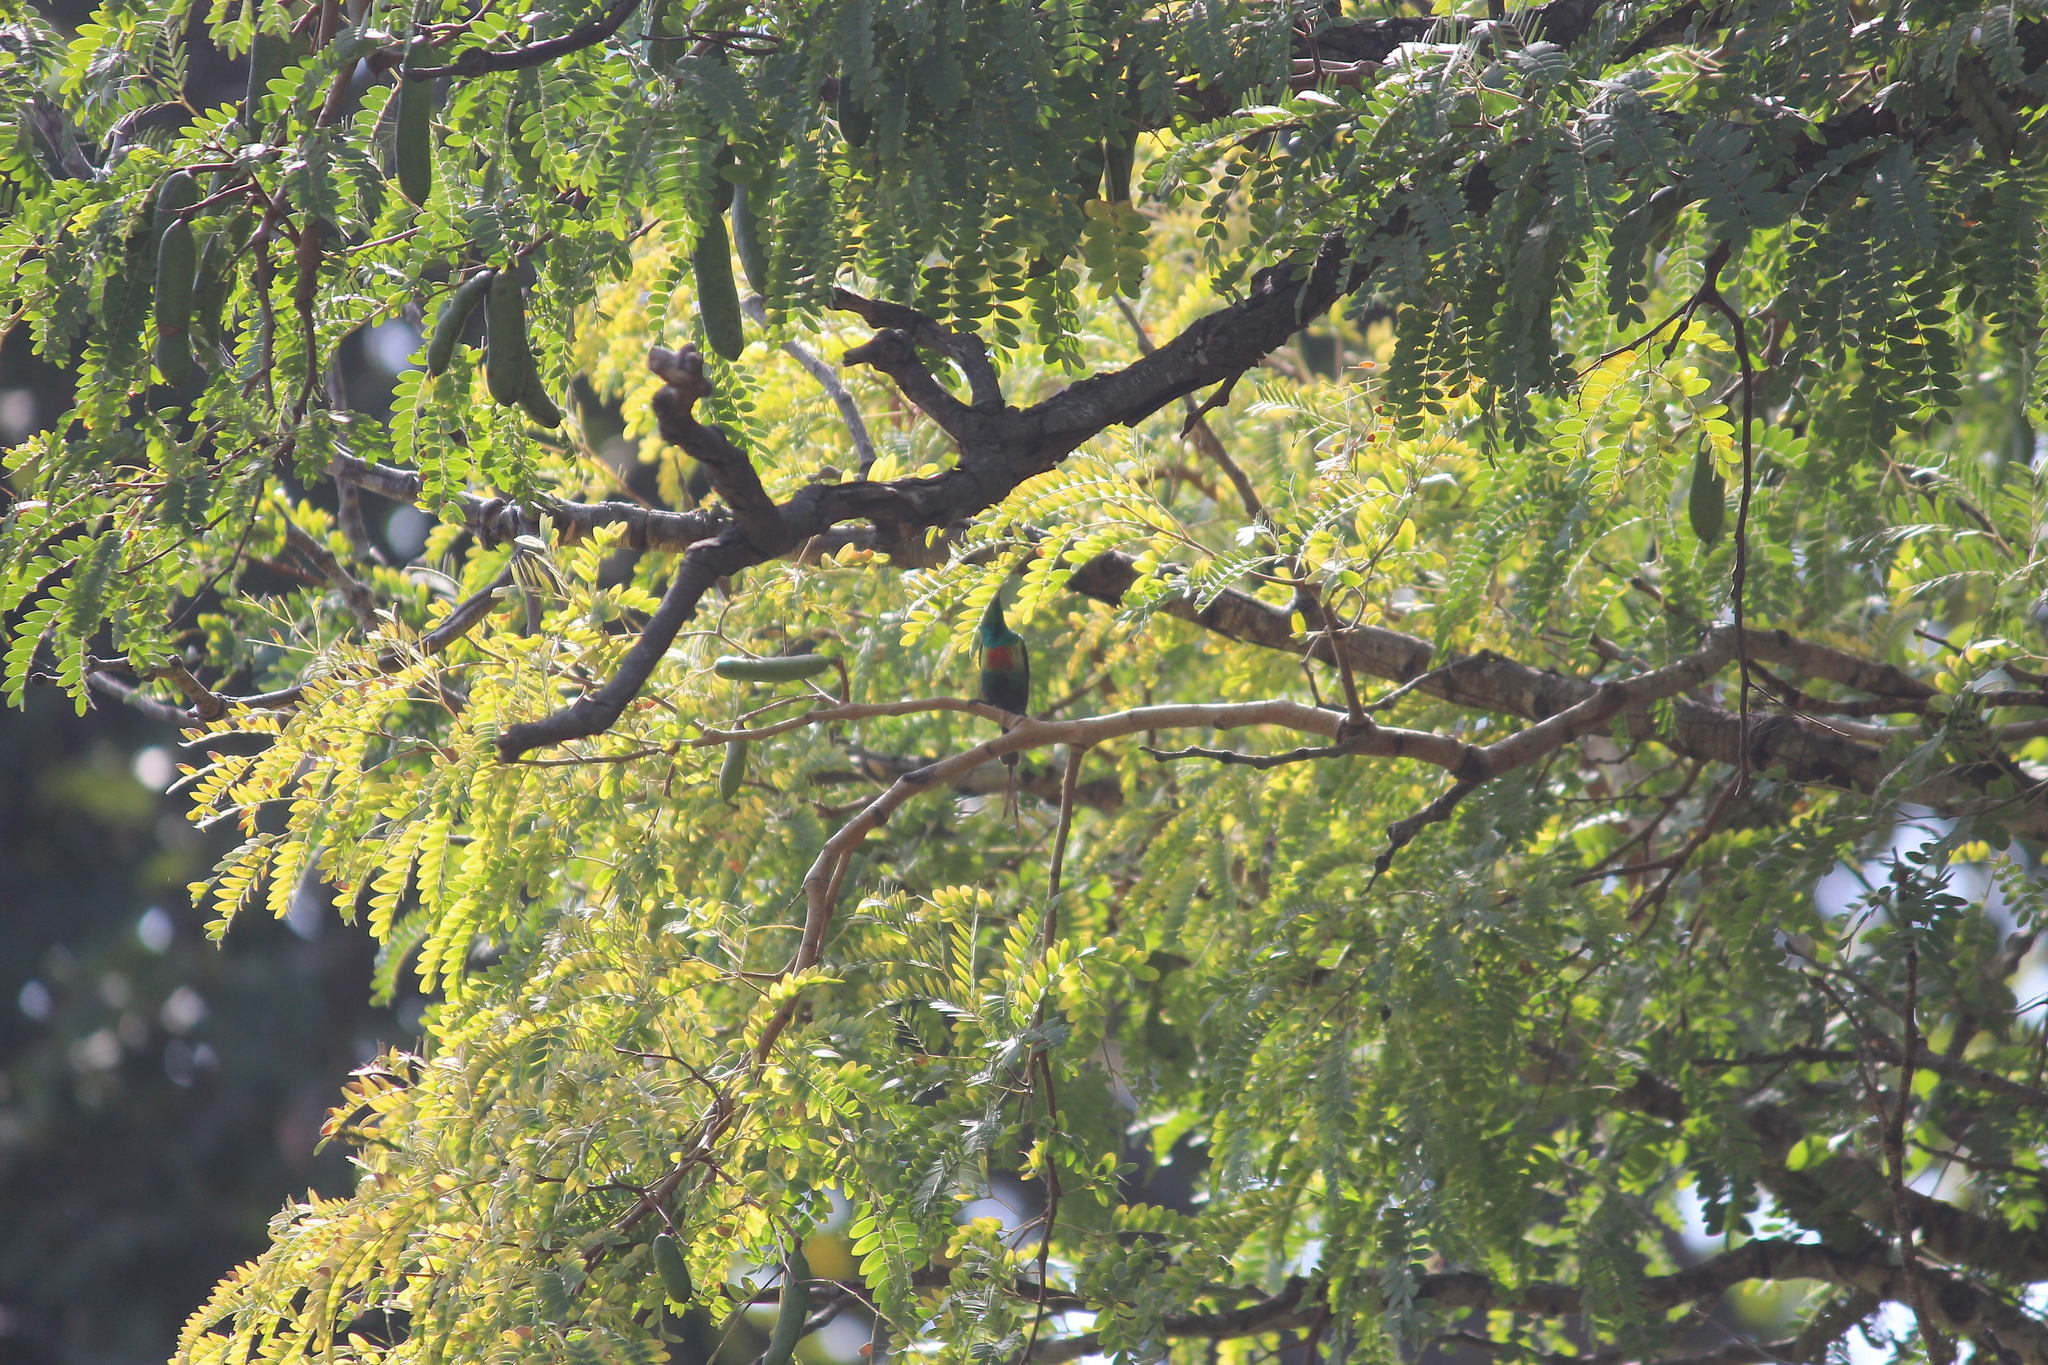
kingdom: Animalia
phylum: Chordata
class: Aves
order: Passeriformes
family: Nectariniidae
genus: Cinnyris
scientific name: Cinnyris pulchellus
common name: Beautiful sunbird
